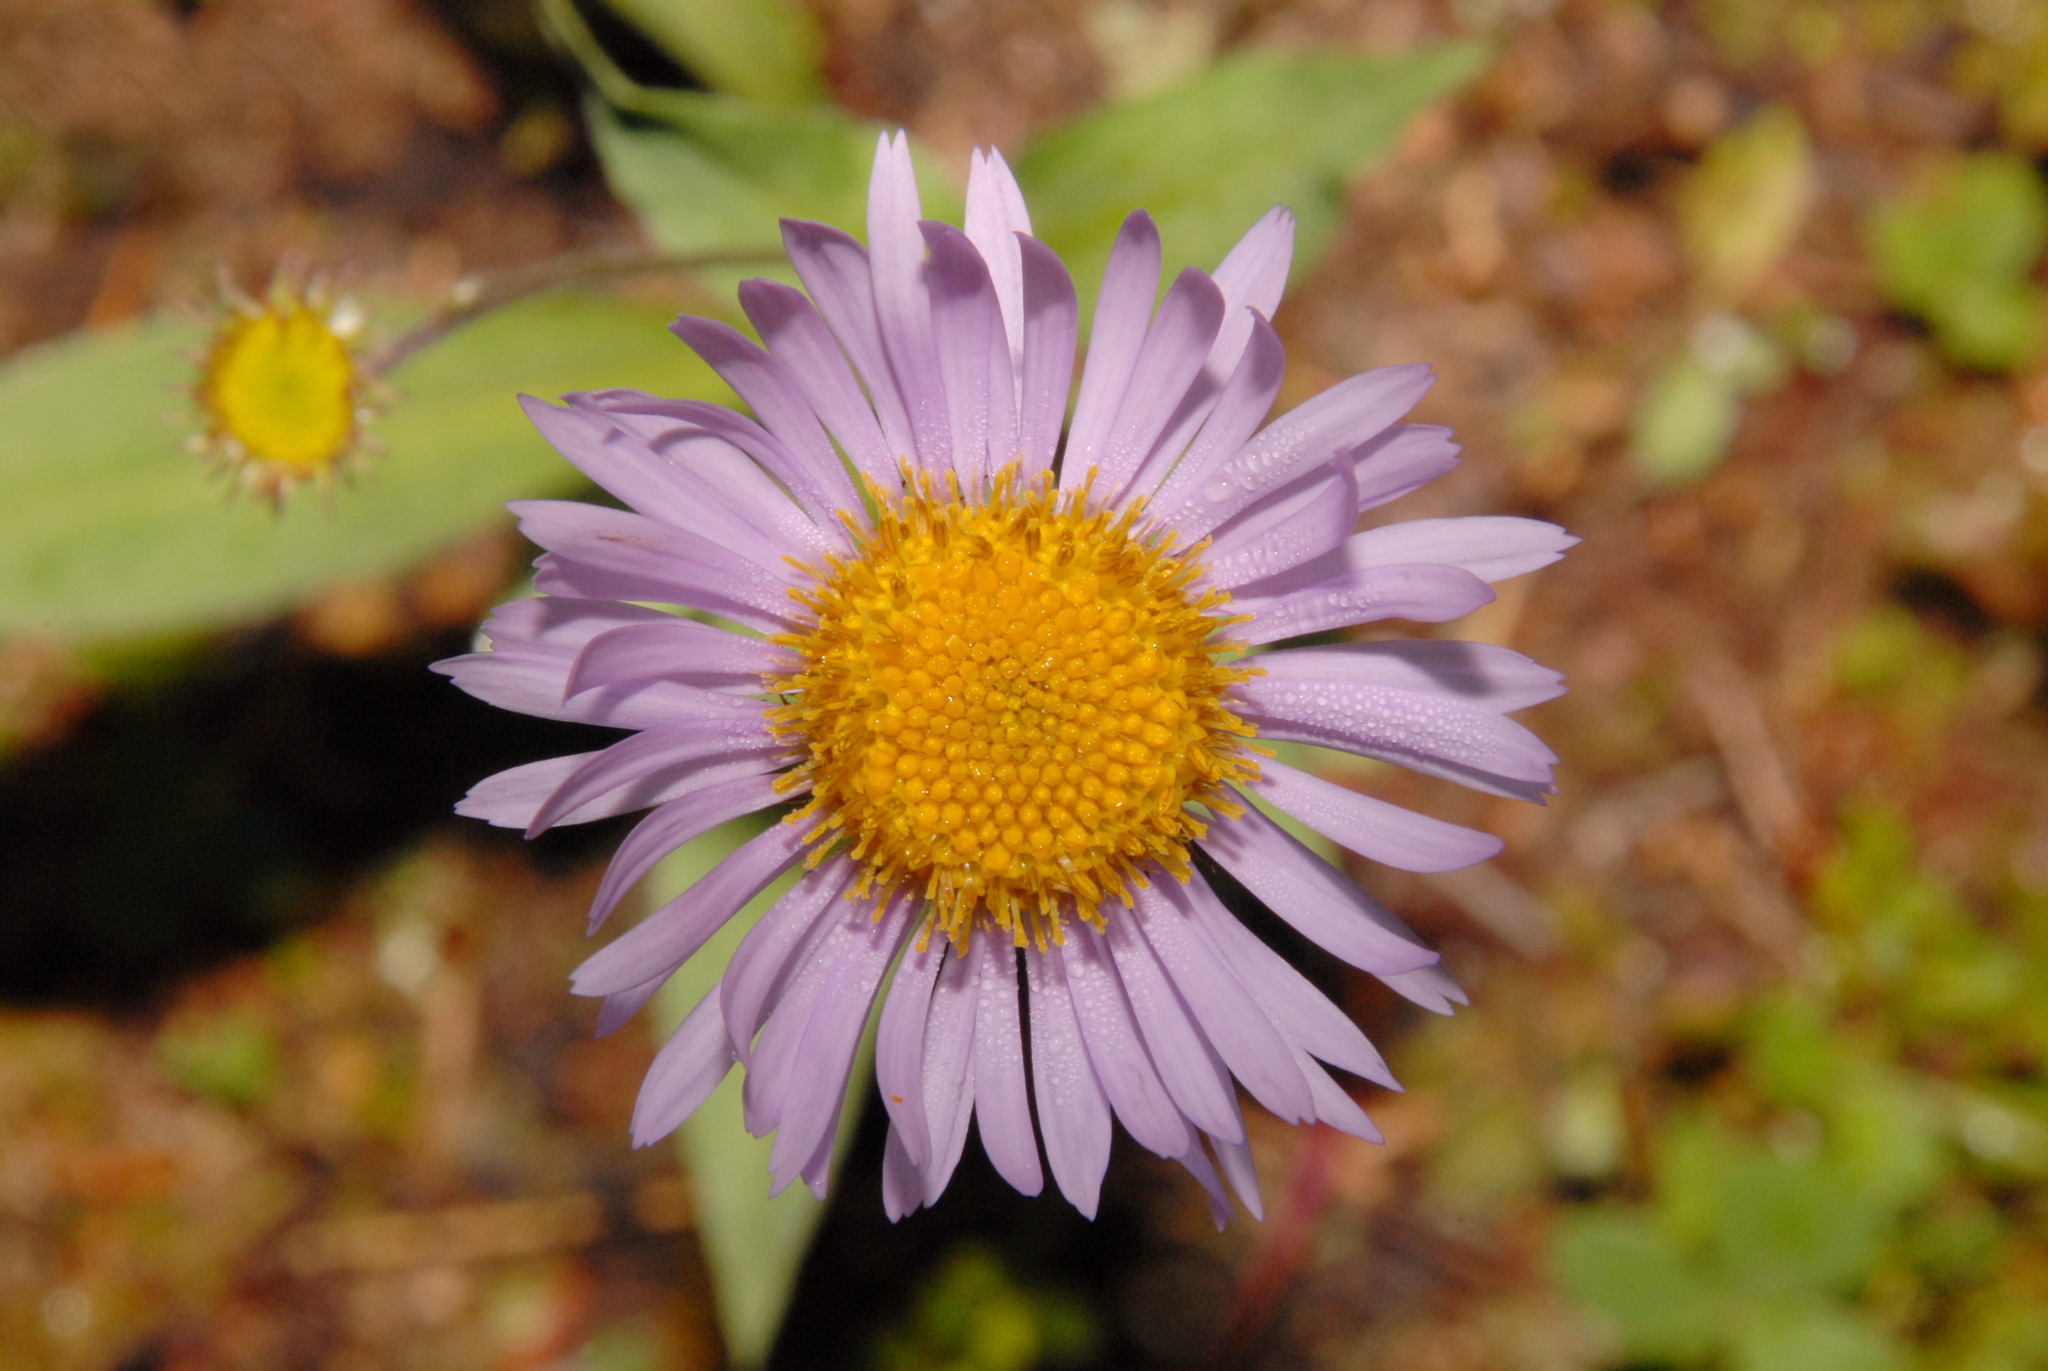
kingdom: Plantae
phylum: Tracheophyta
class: Magnoliopsida
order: Asterales
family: Asteraceae
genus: Erigeron
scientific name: Erigeron glacialis
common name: Subalpine fleabane
